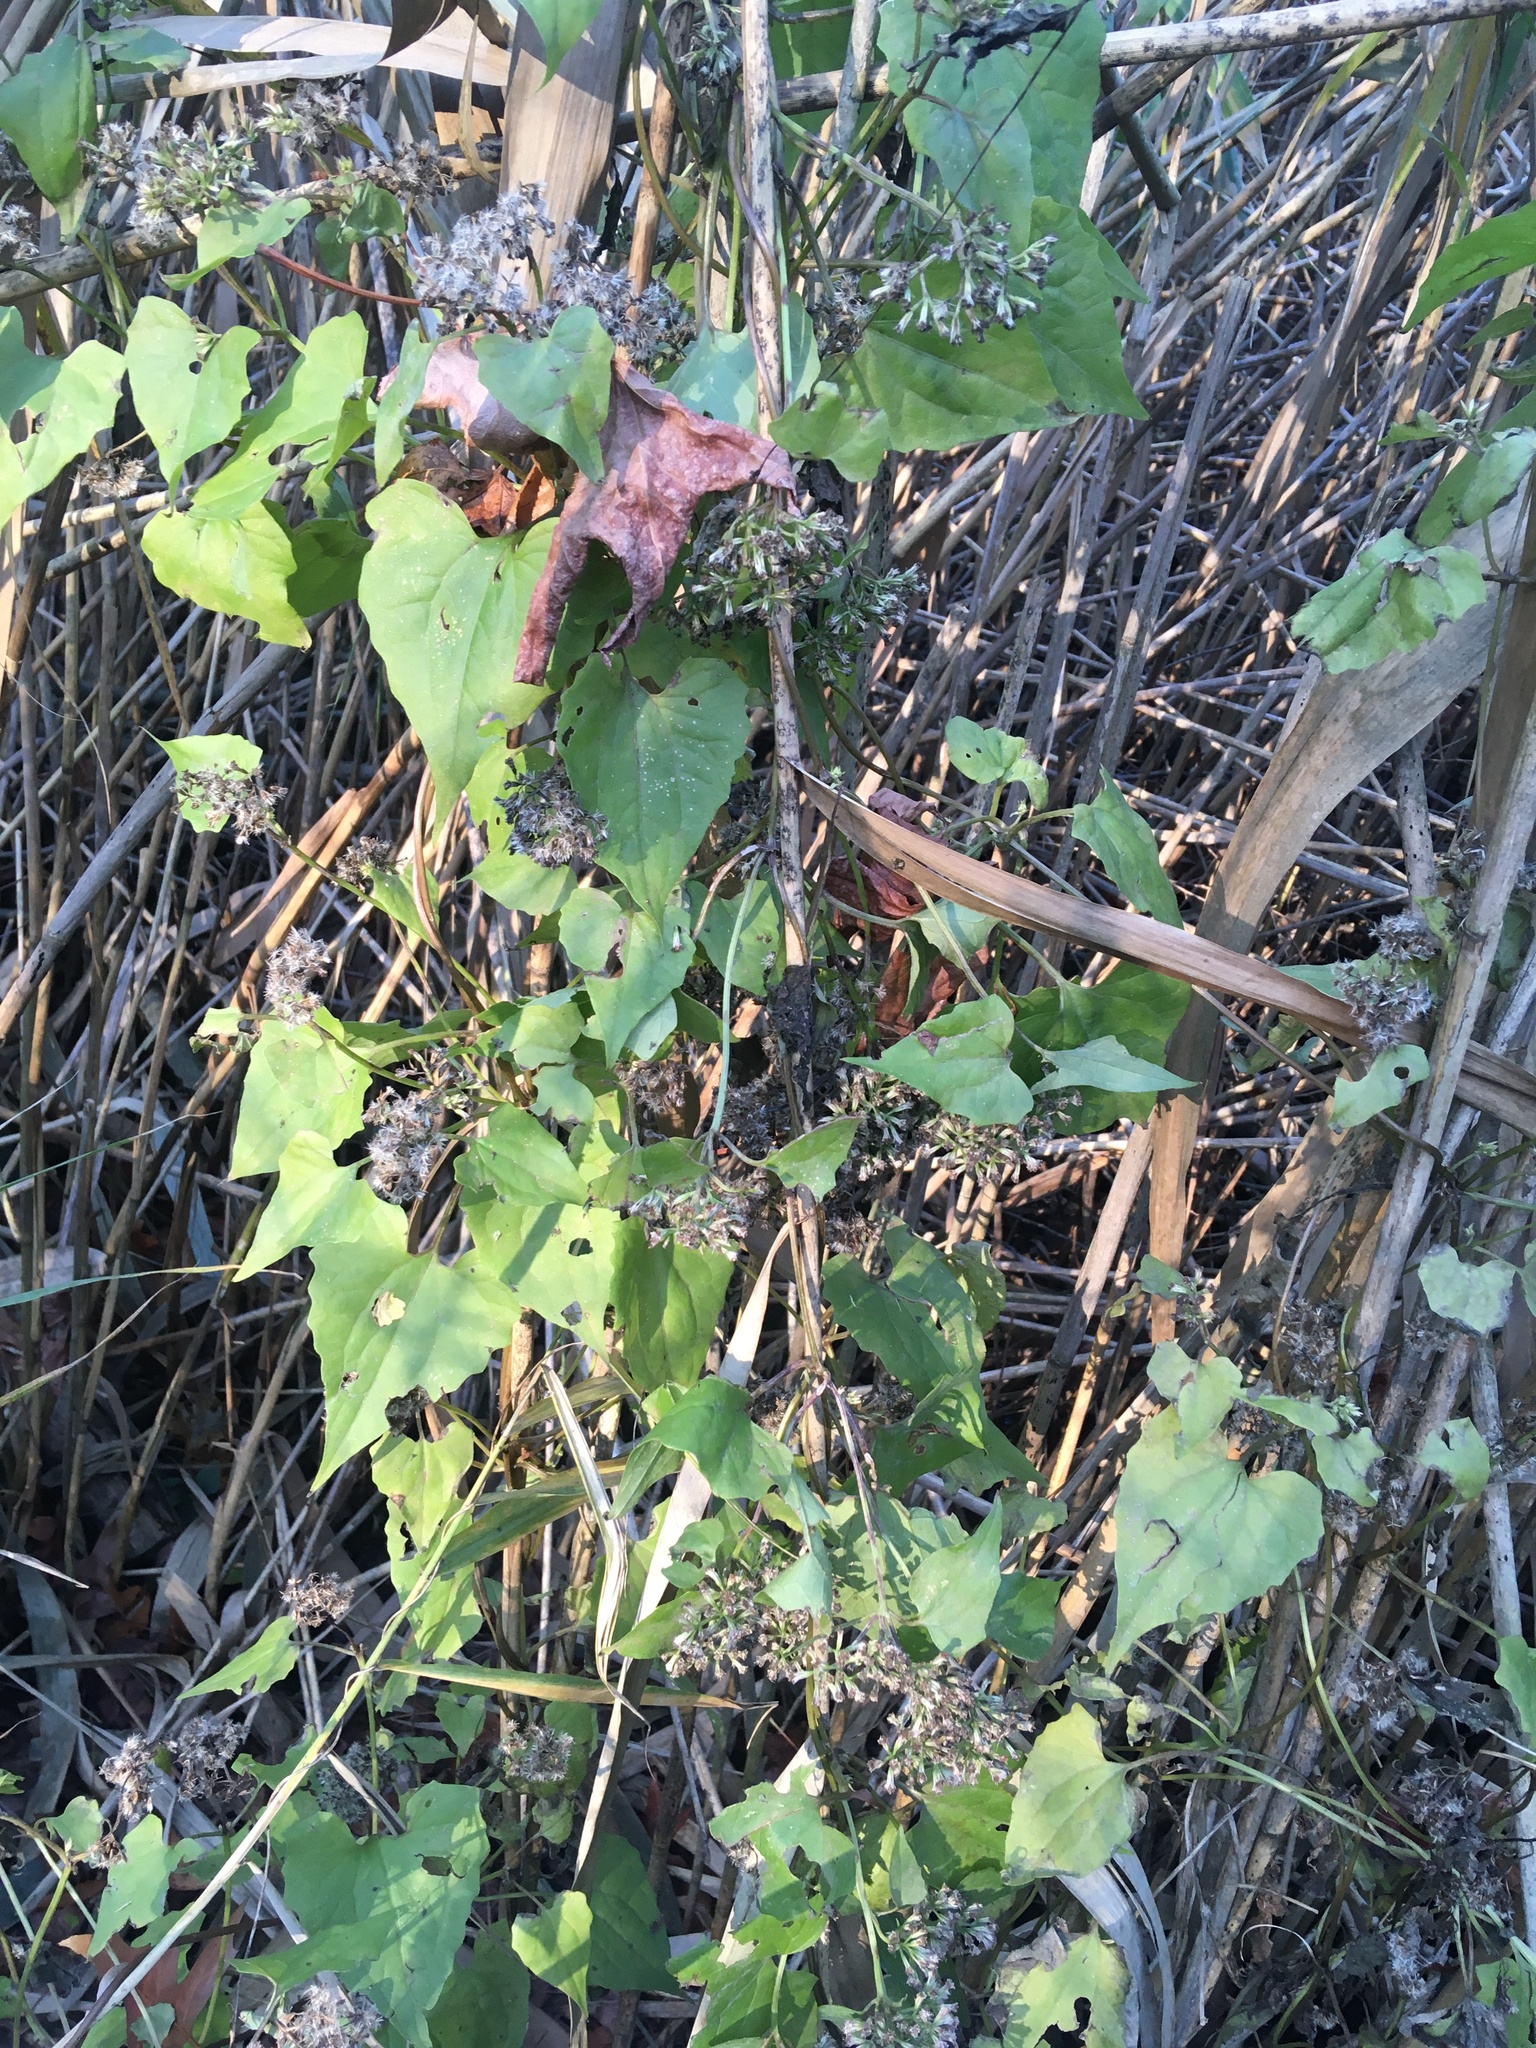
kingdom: Plantae
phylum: Tracheophyta
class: Magnoliopsida
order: Asterales
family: Asteraceae
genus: Mikania
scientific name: Mikania scandens
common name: Climbing hempvine
